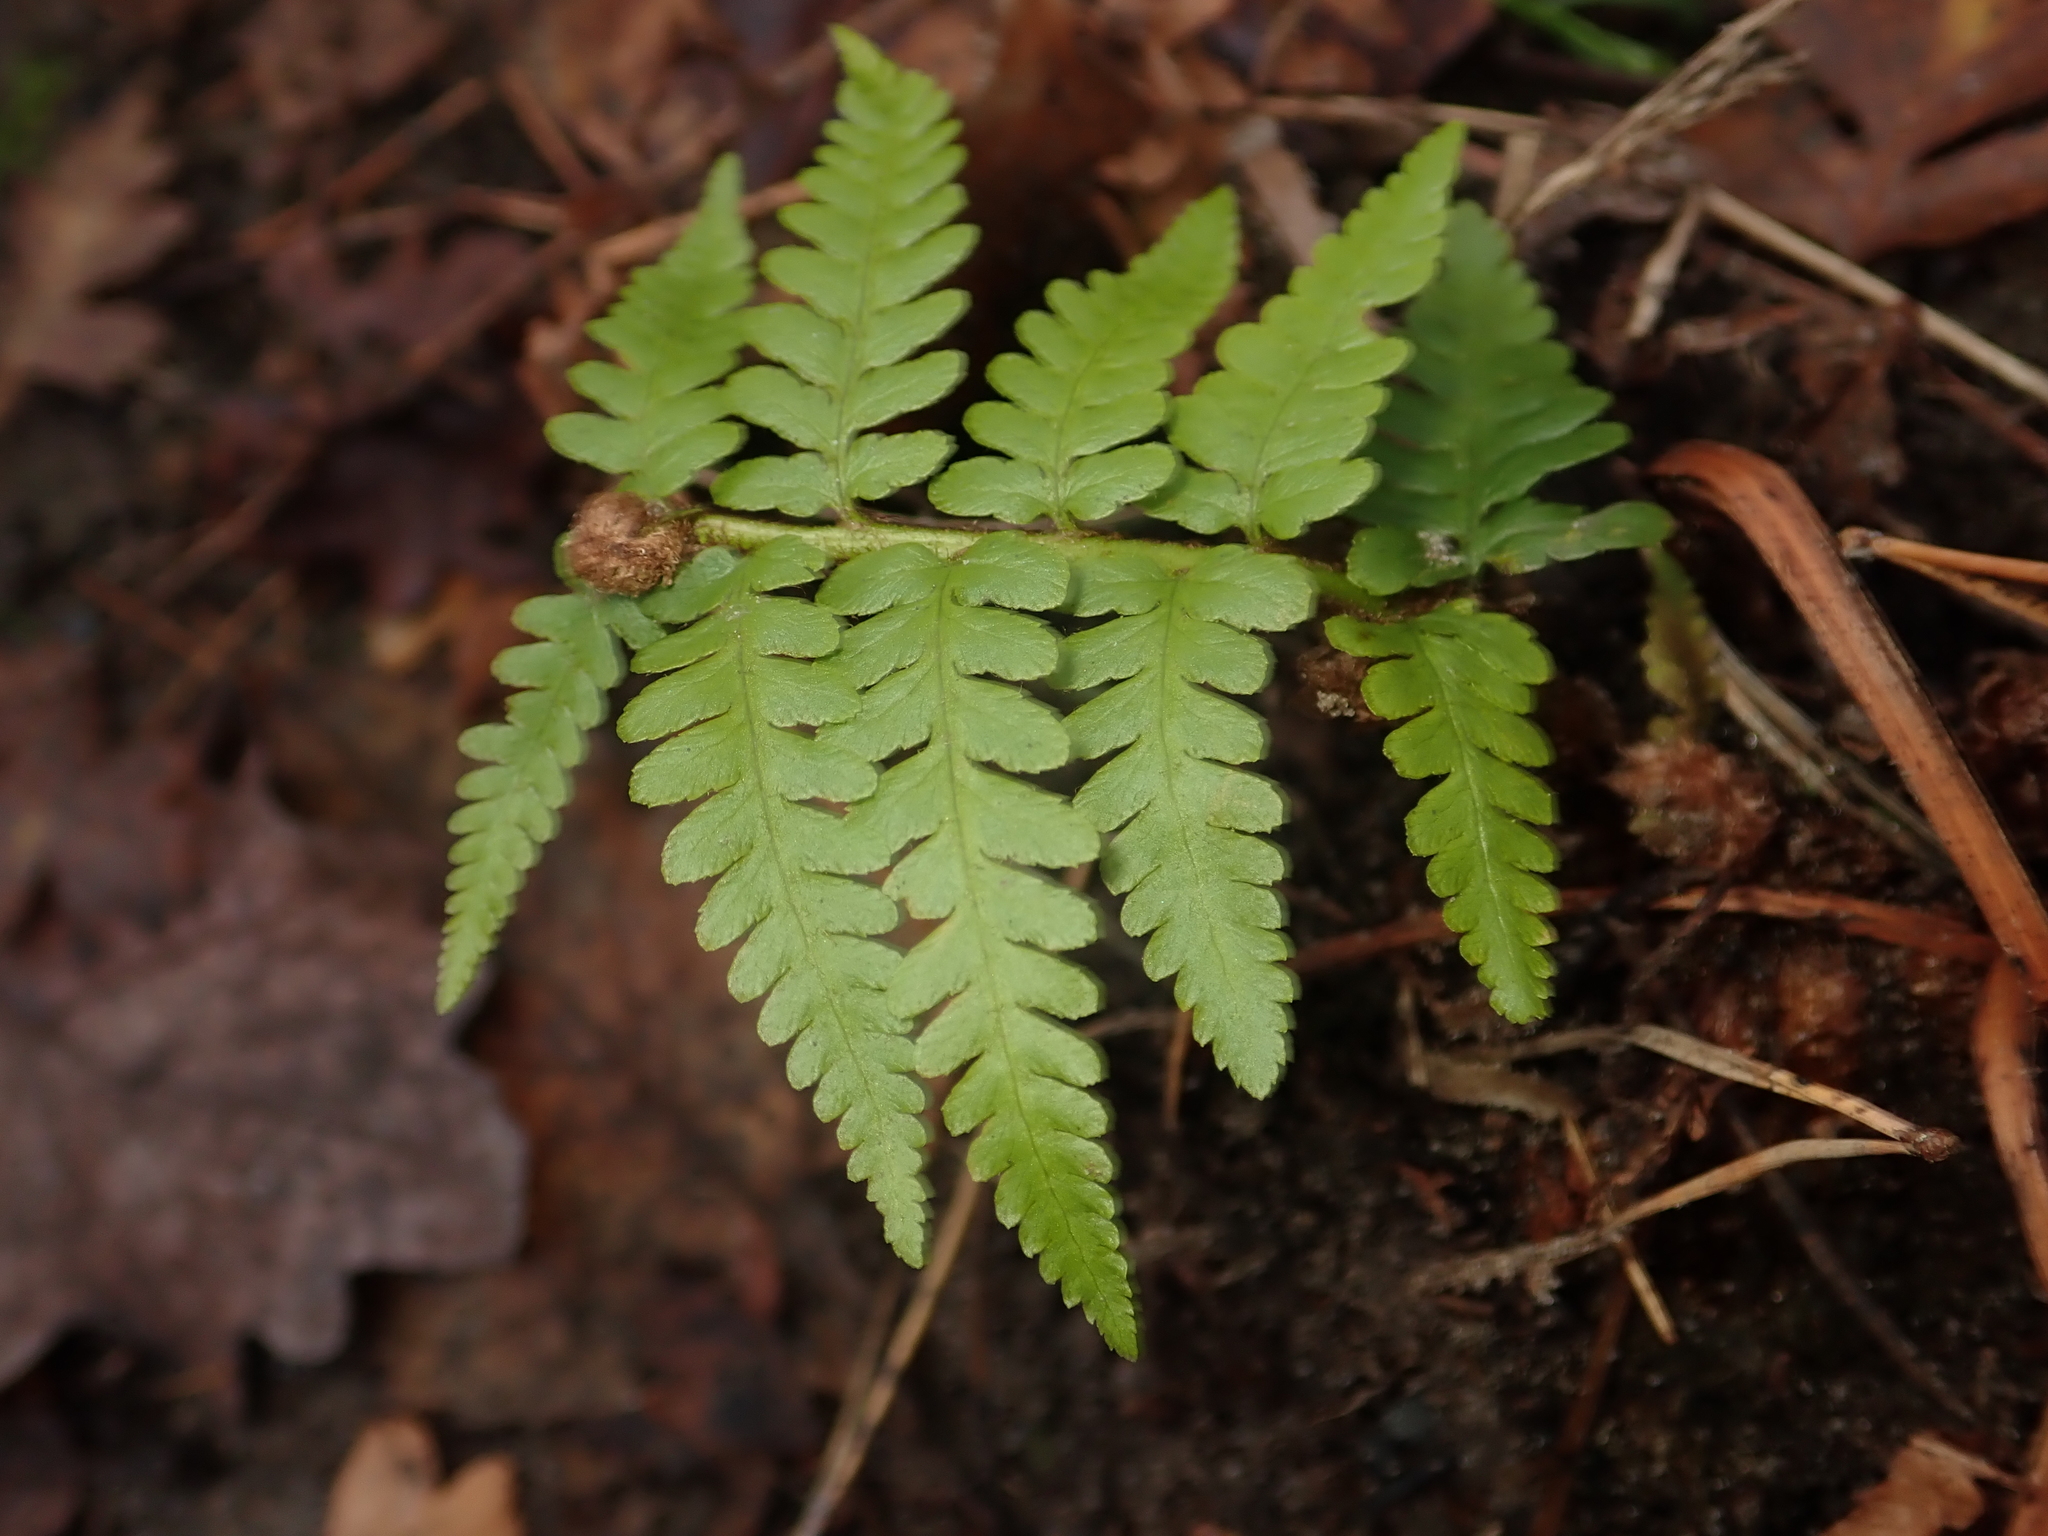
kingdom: Plantae
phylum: Tracheophyta
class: Polypodiopsida
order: Polypodiales
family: Dryopteridaceae
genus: Dryopteris
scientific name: Dryopteris filix-mas
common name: Male fern
